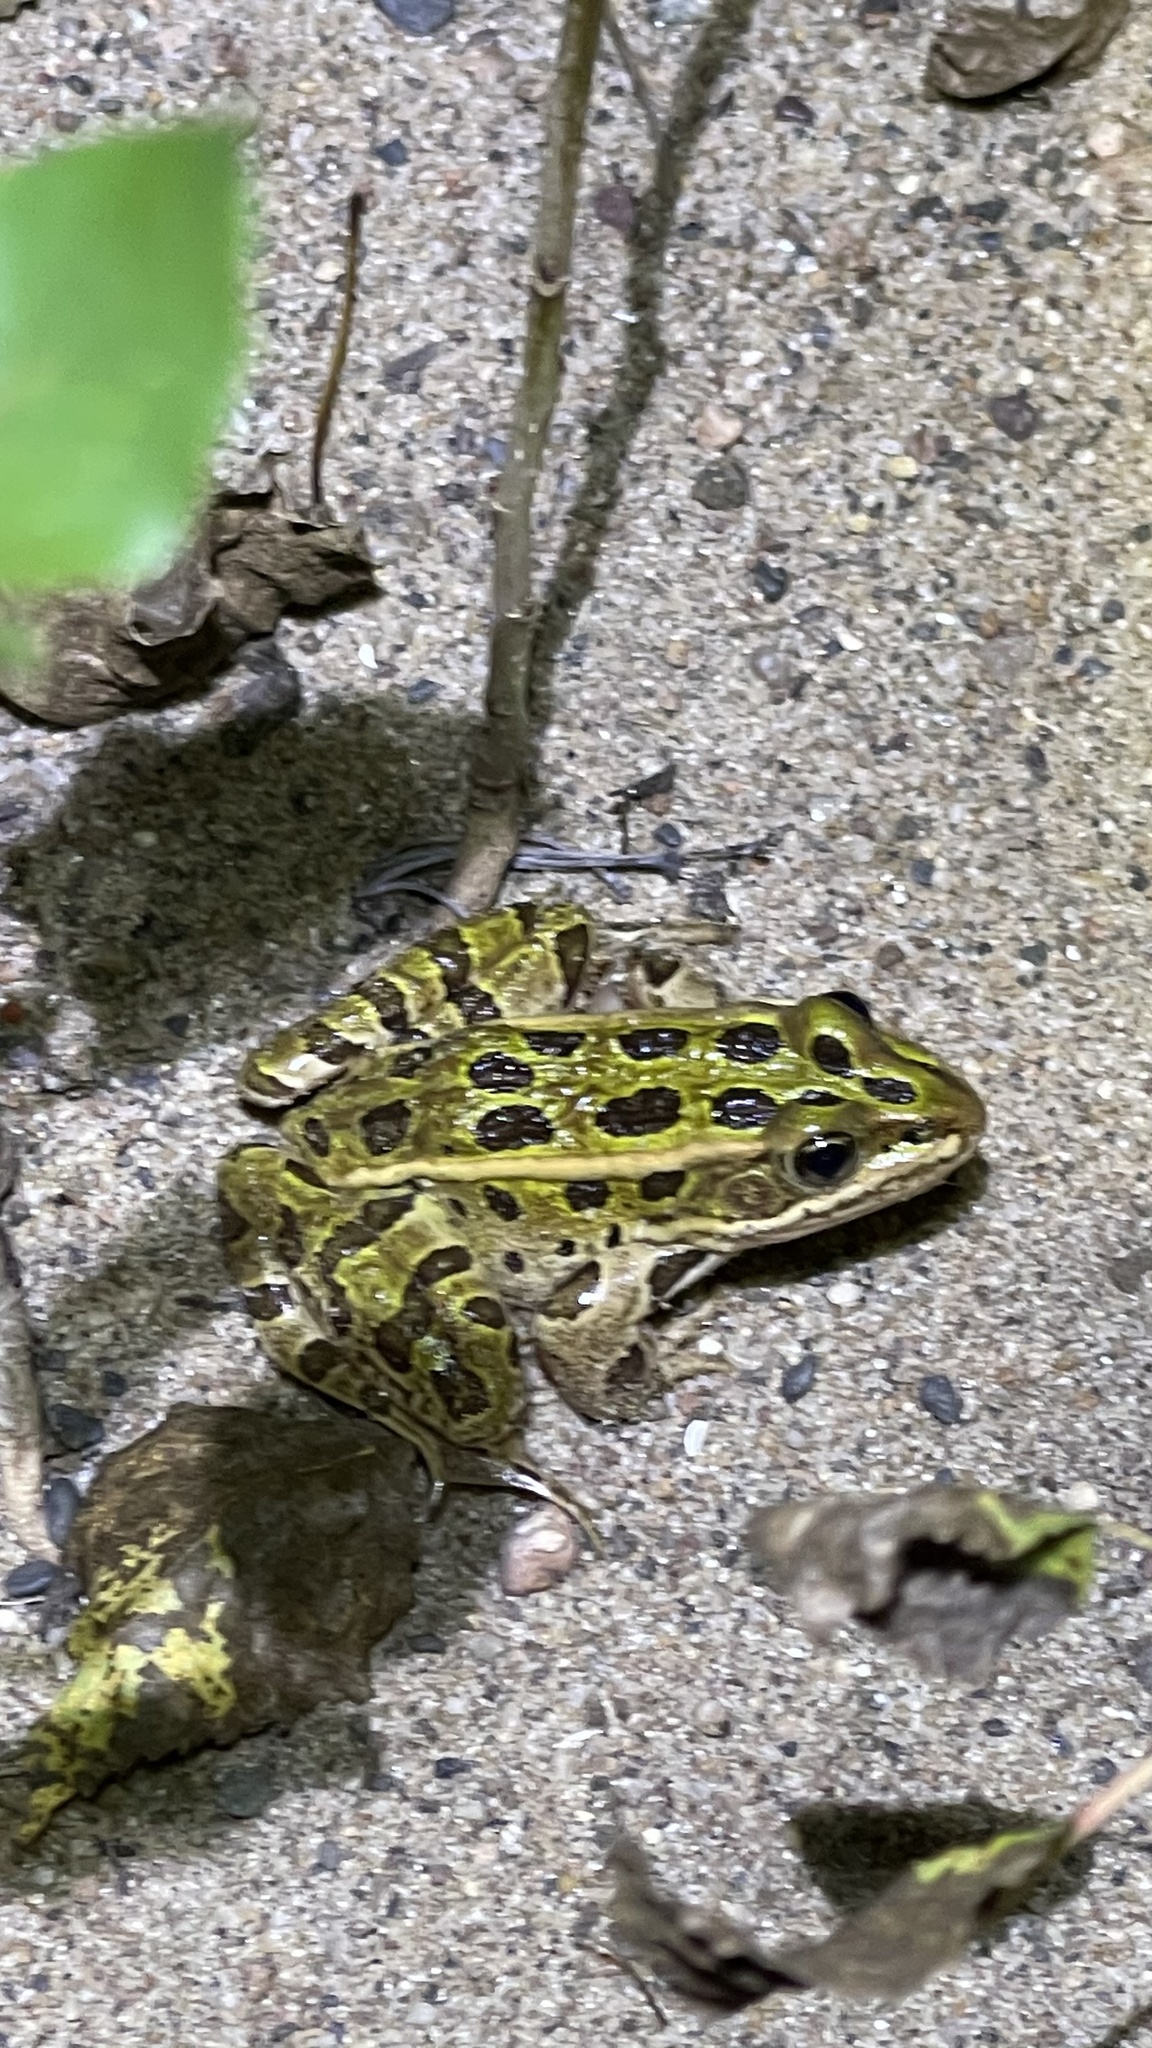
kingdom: Animalia
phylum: Chordata
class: Amphibia
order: Anura
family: Ranidae
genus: Lithobates
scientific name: Lithobates pipiens
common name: Northern leopard frog
